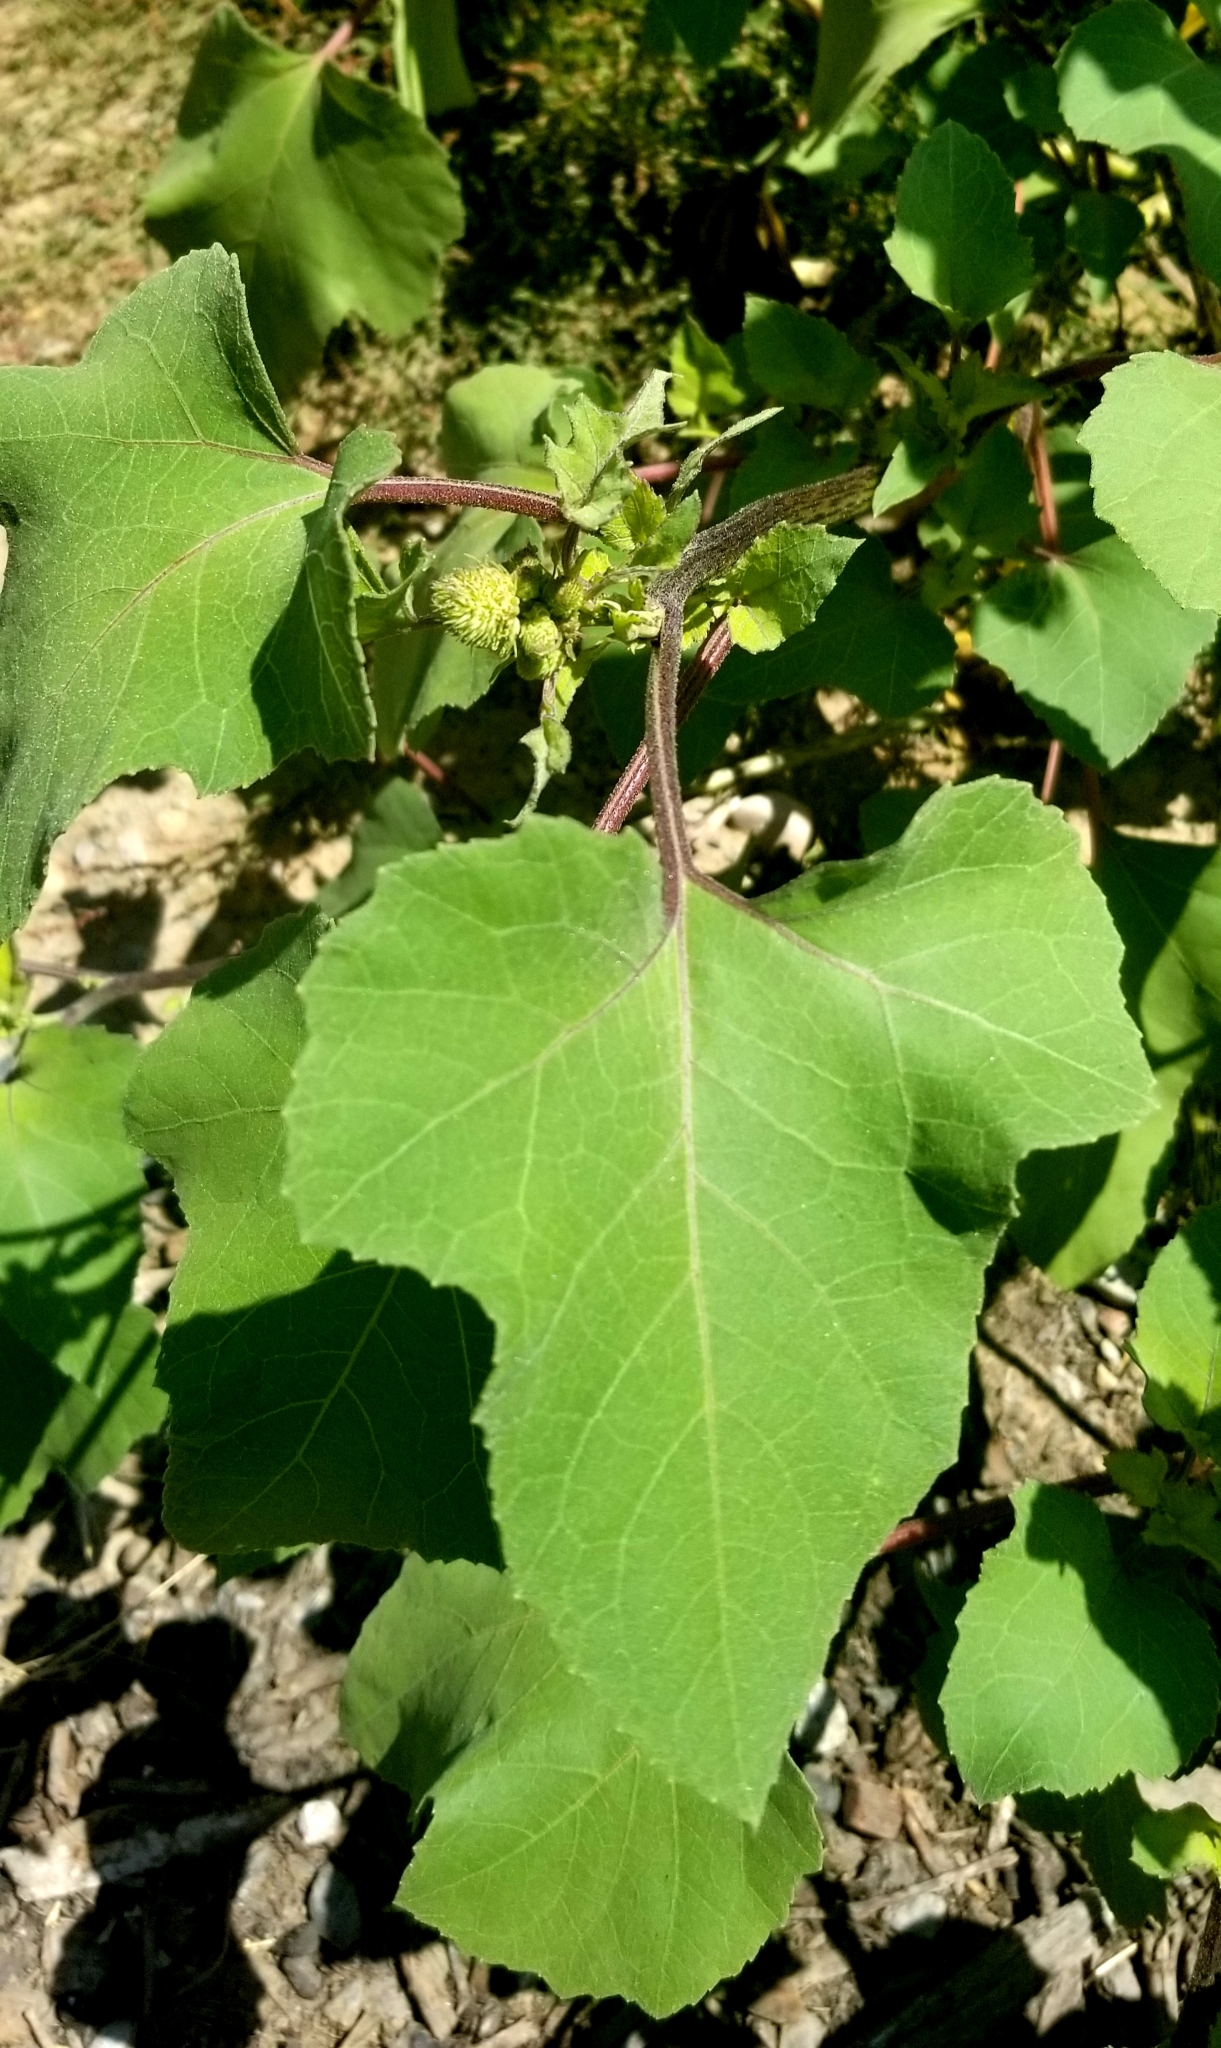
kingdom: Plantae
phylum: Tracheophyta
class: Magnoliopsida
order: Asterales
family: Asteraceae
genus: Xanthium
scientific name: Xanthium strumarium
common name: Rough cocklebur
